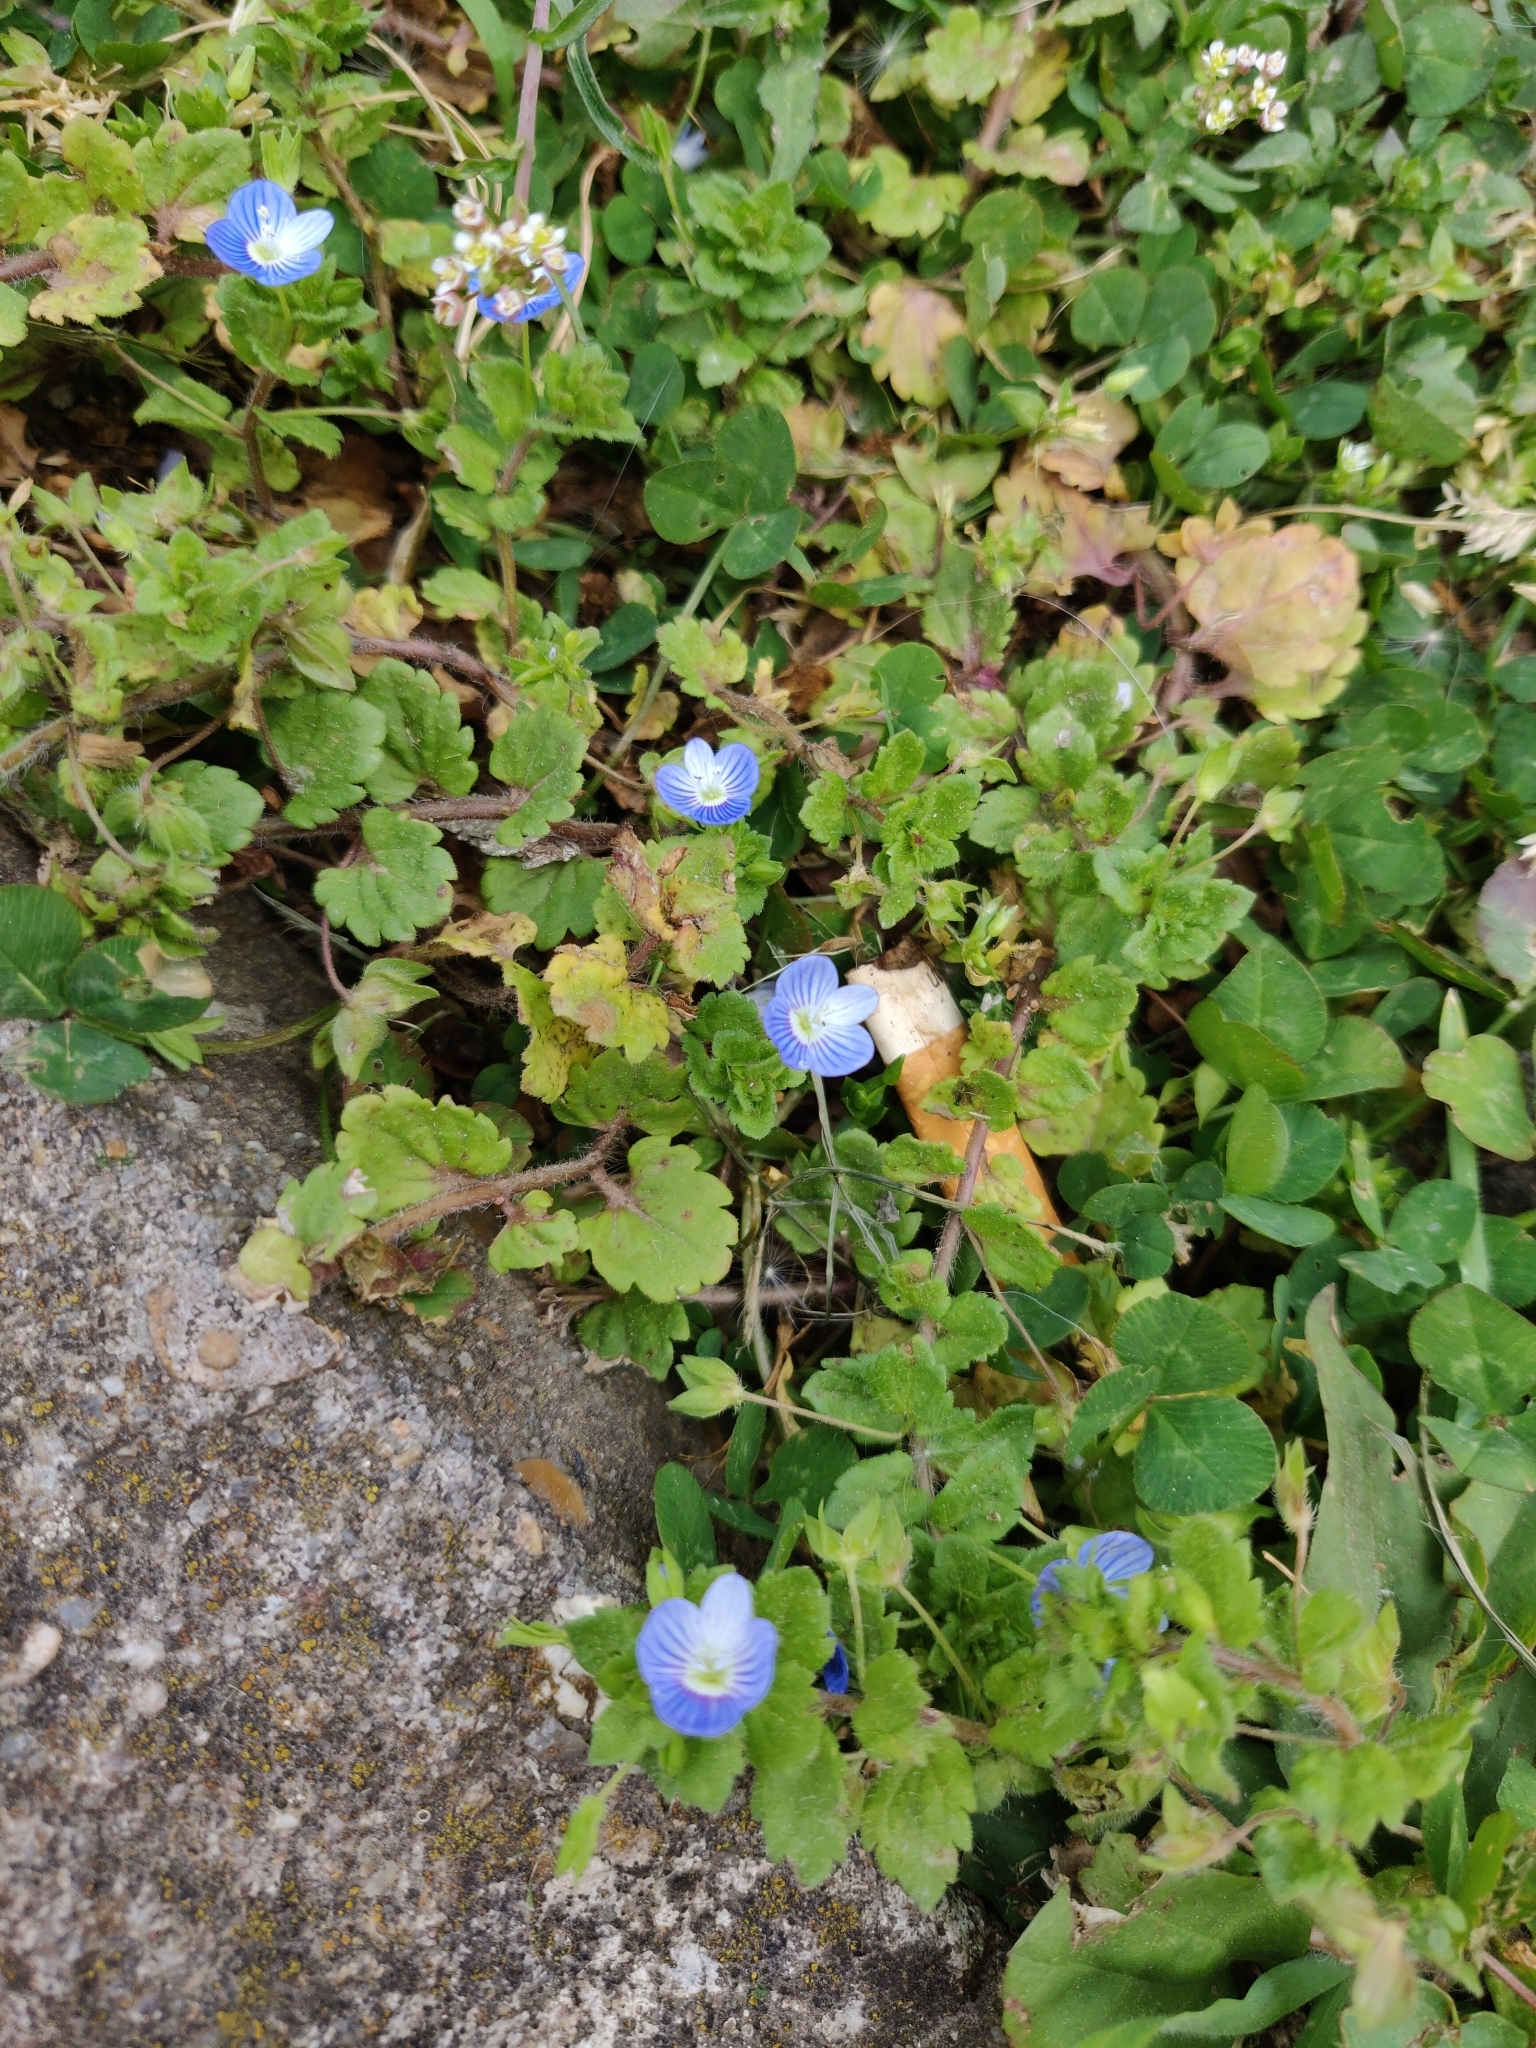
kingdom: Plantae
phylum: Tracheophyta
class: Magnoliopsida
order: Lamiales
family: Plantaginaceae
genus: Veronica
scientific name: Veronica persica
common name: Common field-speedwell
